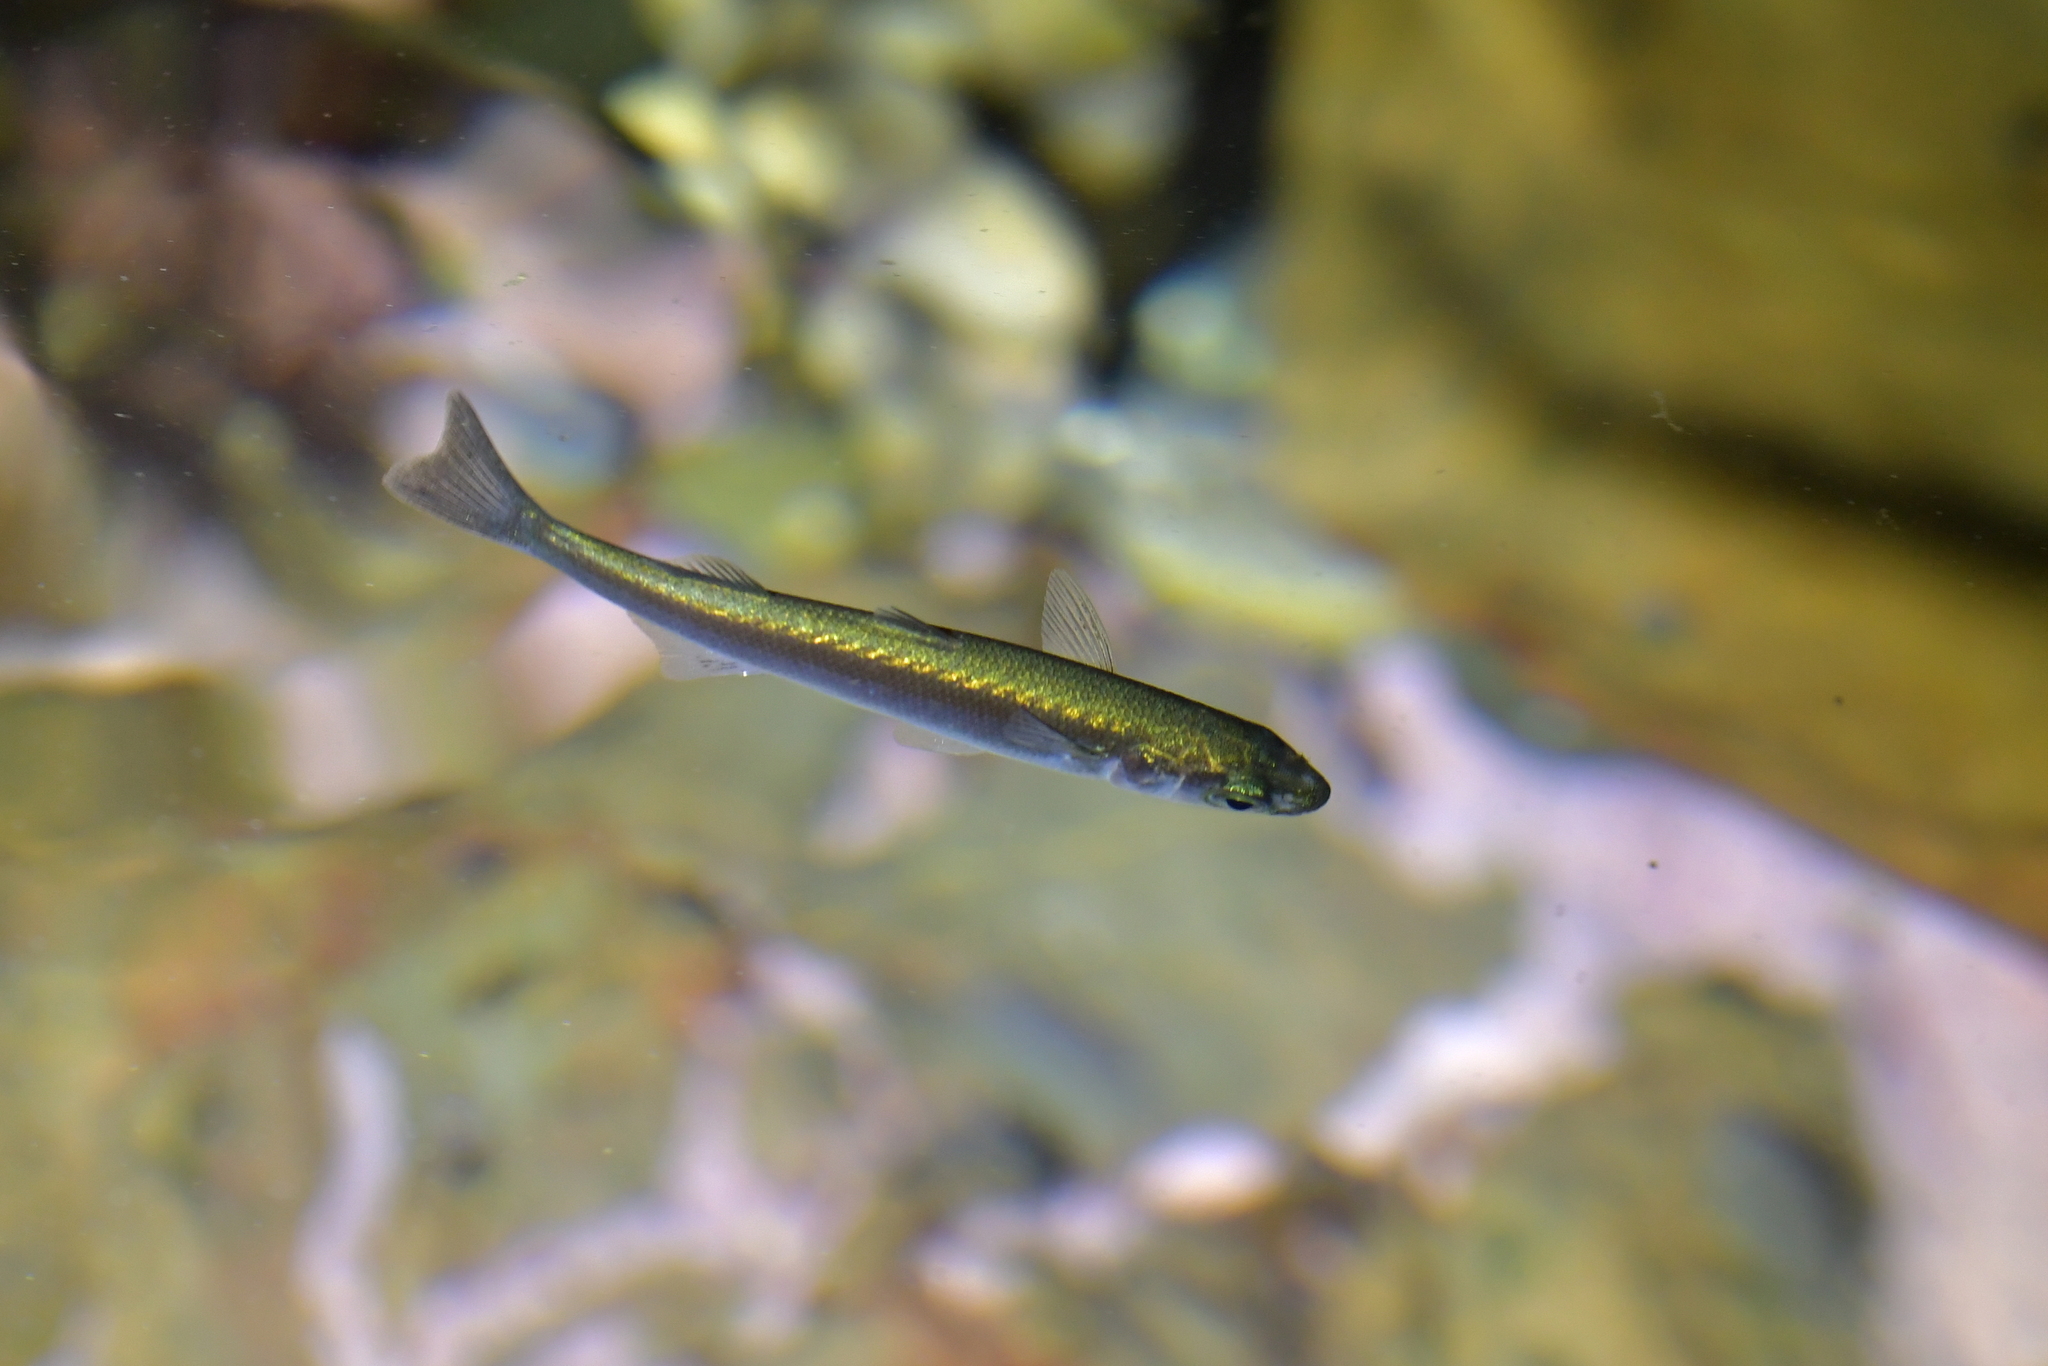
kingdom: Animalia
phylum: Chordata
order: Mugiliformes
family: Mugilidae
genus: Aldrichetta
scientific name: Aldrichetta forsteri
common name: Yellow-eye mullet
